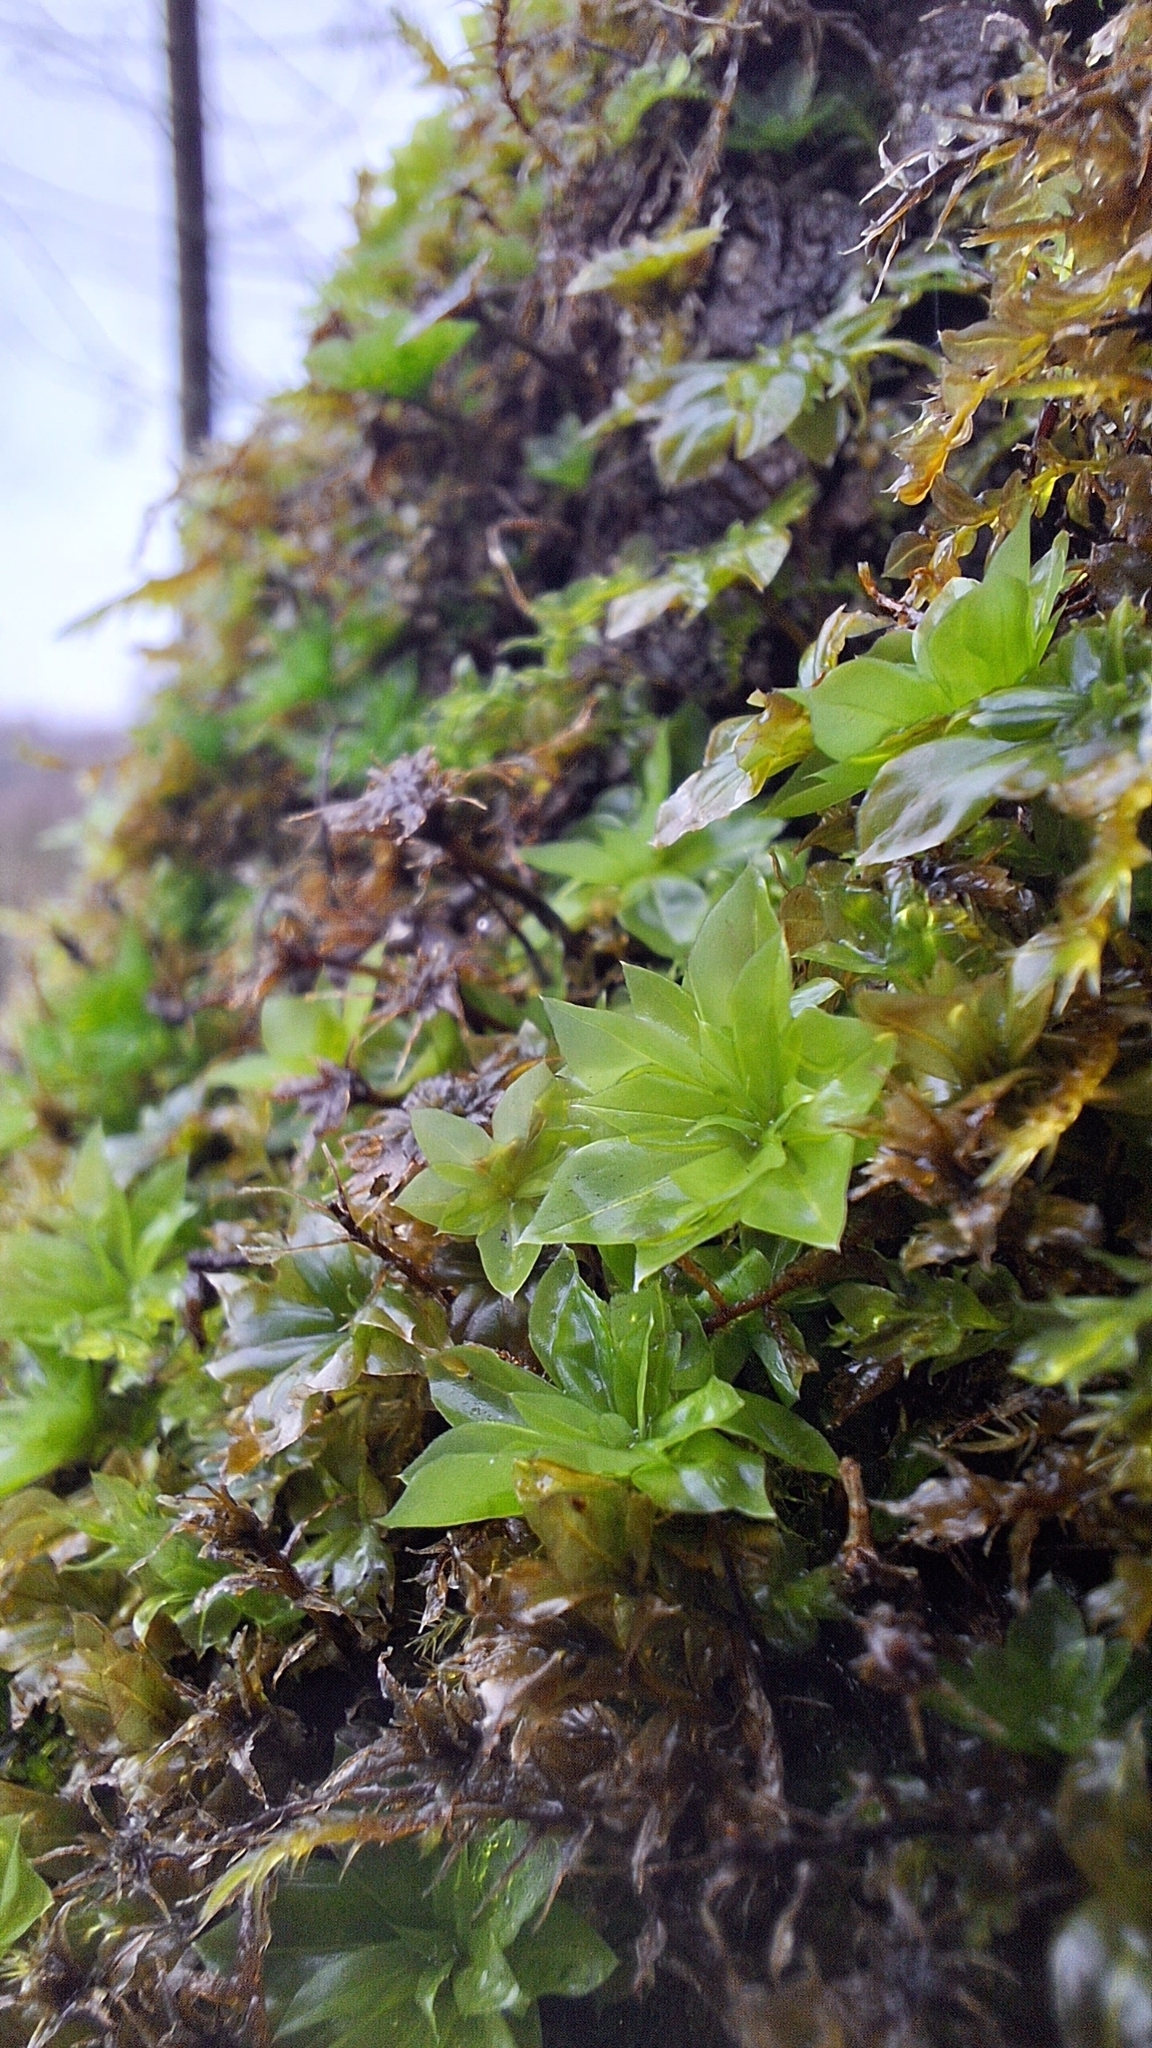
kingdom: Plantae
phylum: Bryophyta
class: Bryopsida
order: Bryales
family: Bryaceae
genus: Rhodobryum
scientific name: Rhodobryum roseum
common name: Rose-moss
